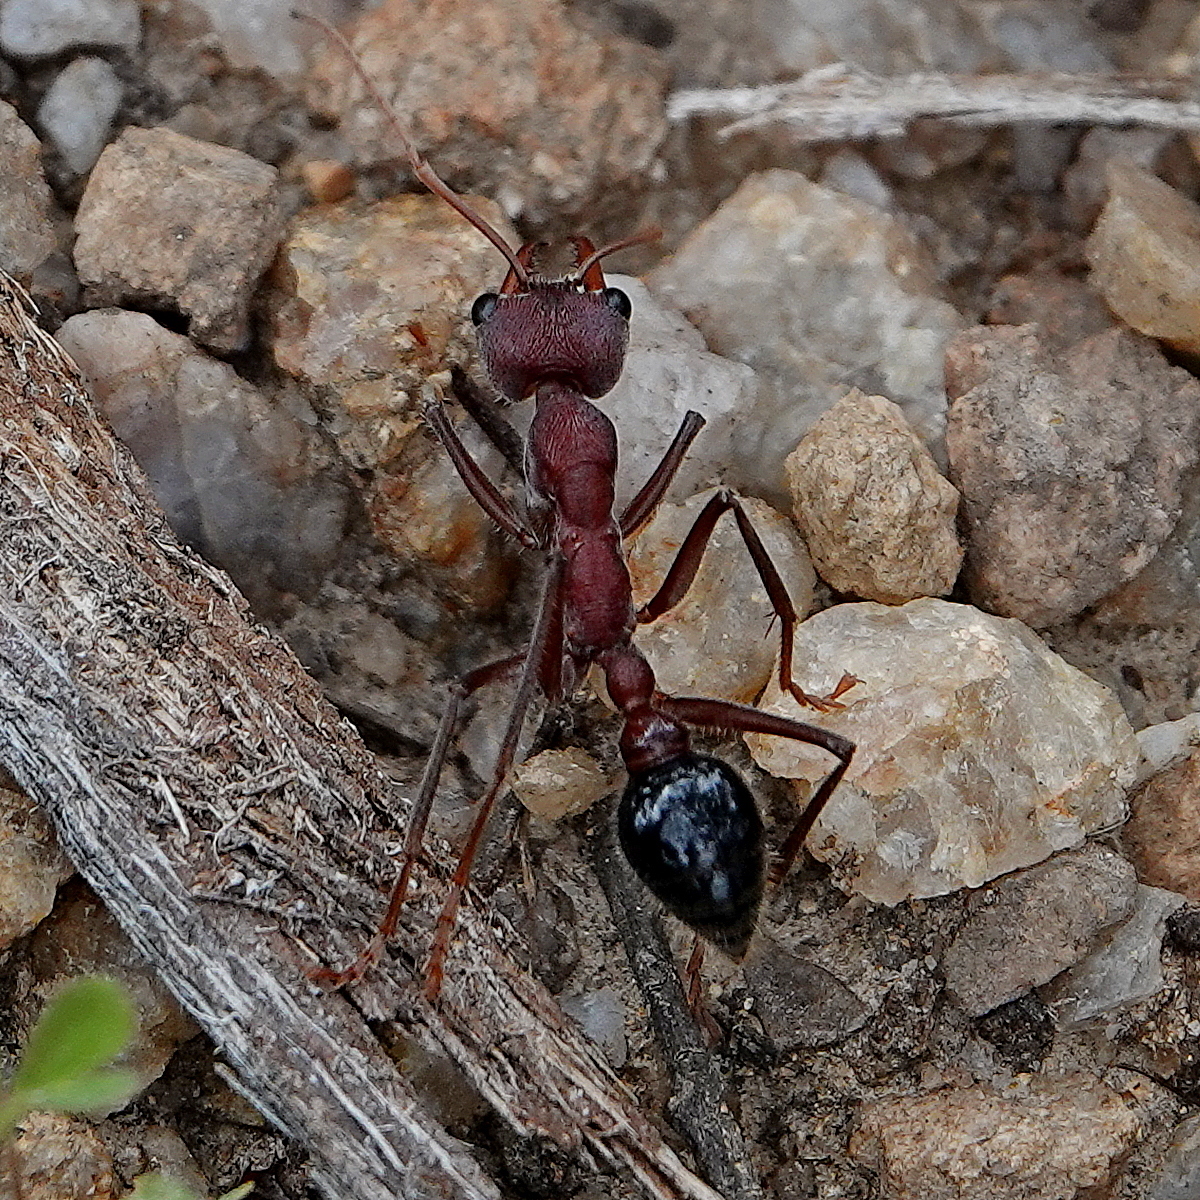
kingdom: Animalia
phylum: Arthropoda
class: Insecta
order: Hymenoptera
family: Formicidae
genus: Myrmecia
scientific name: Myrmecia simillima
